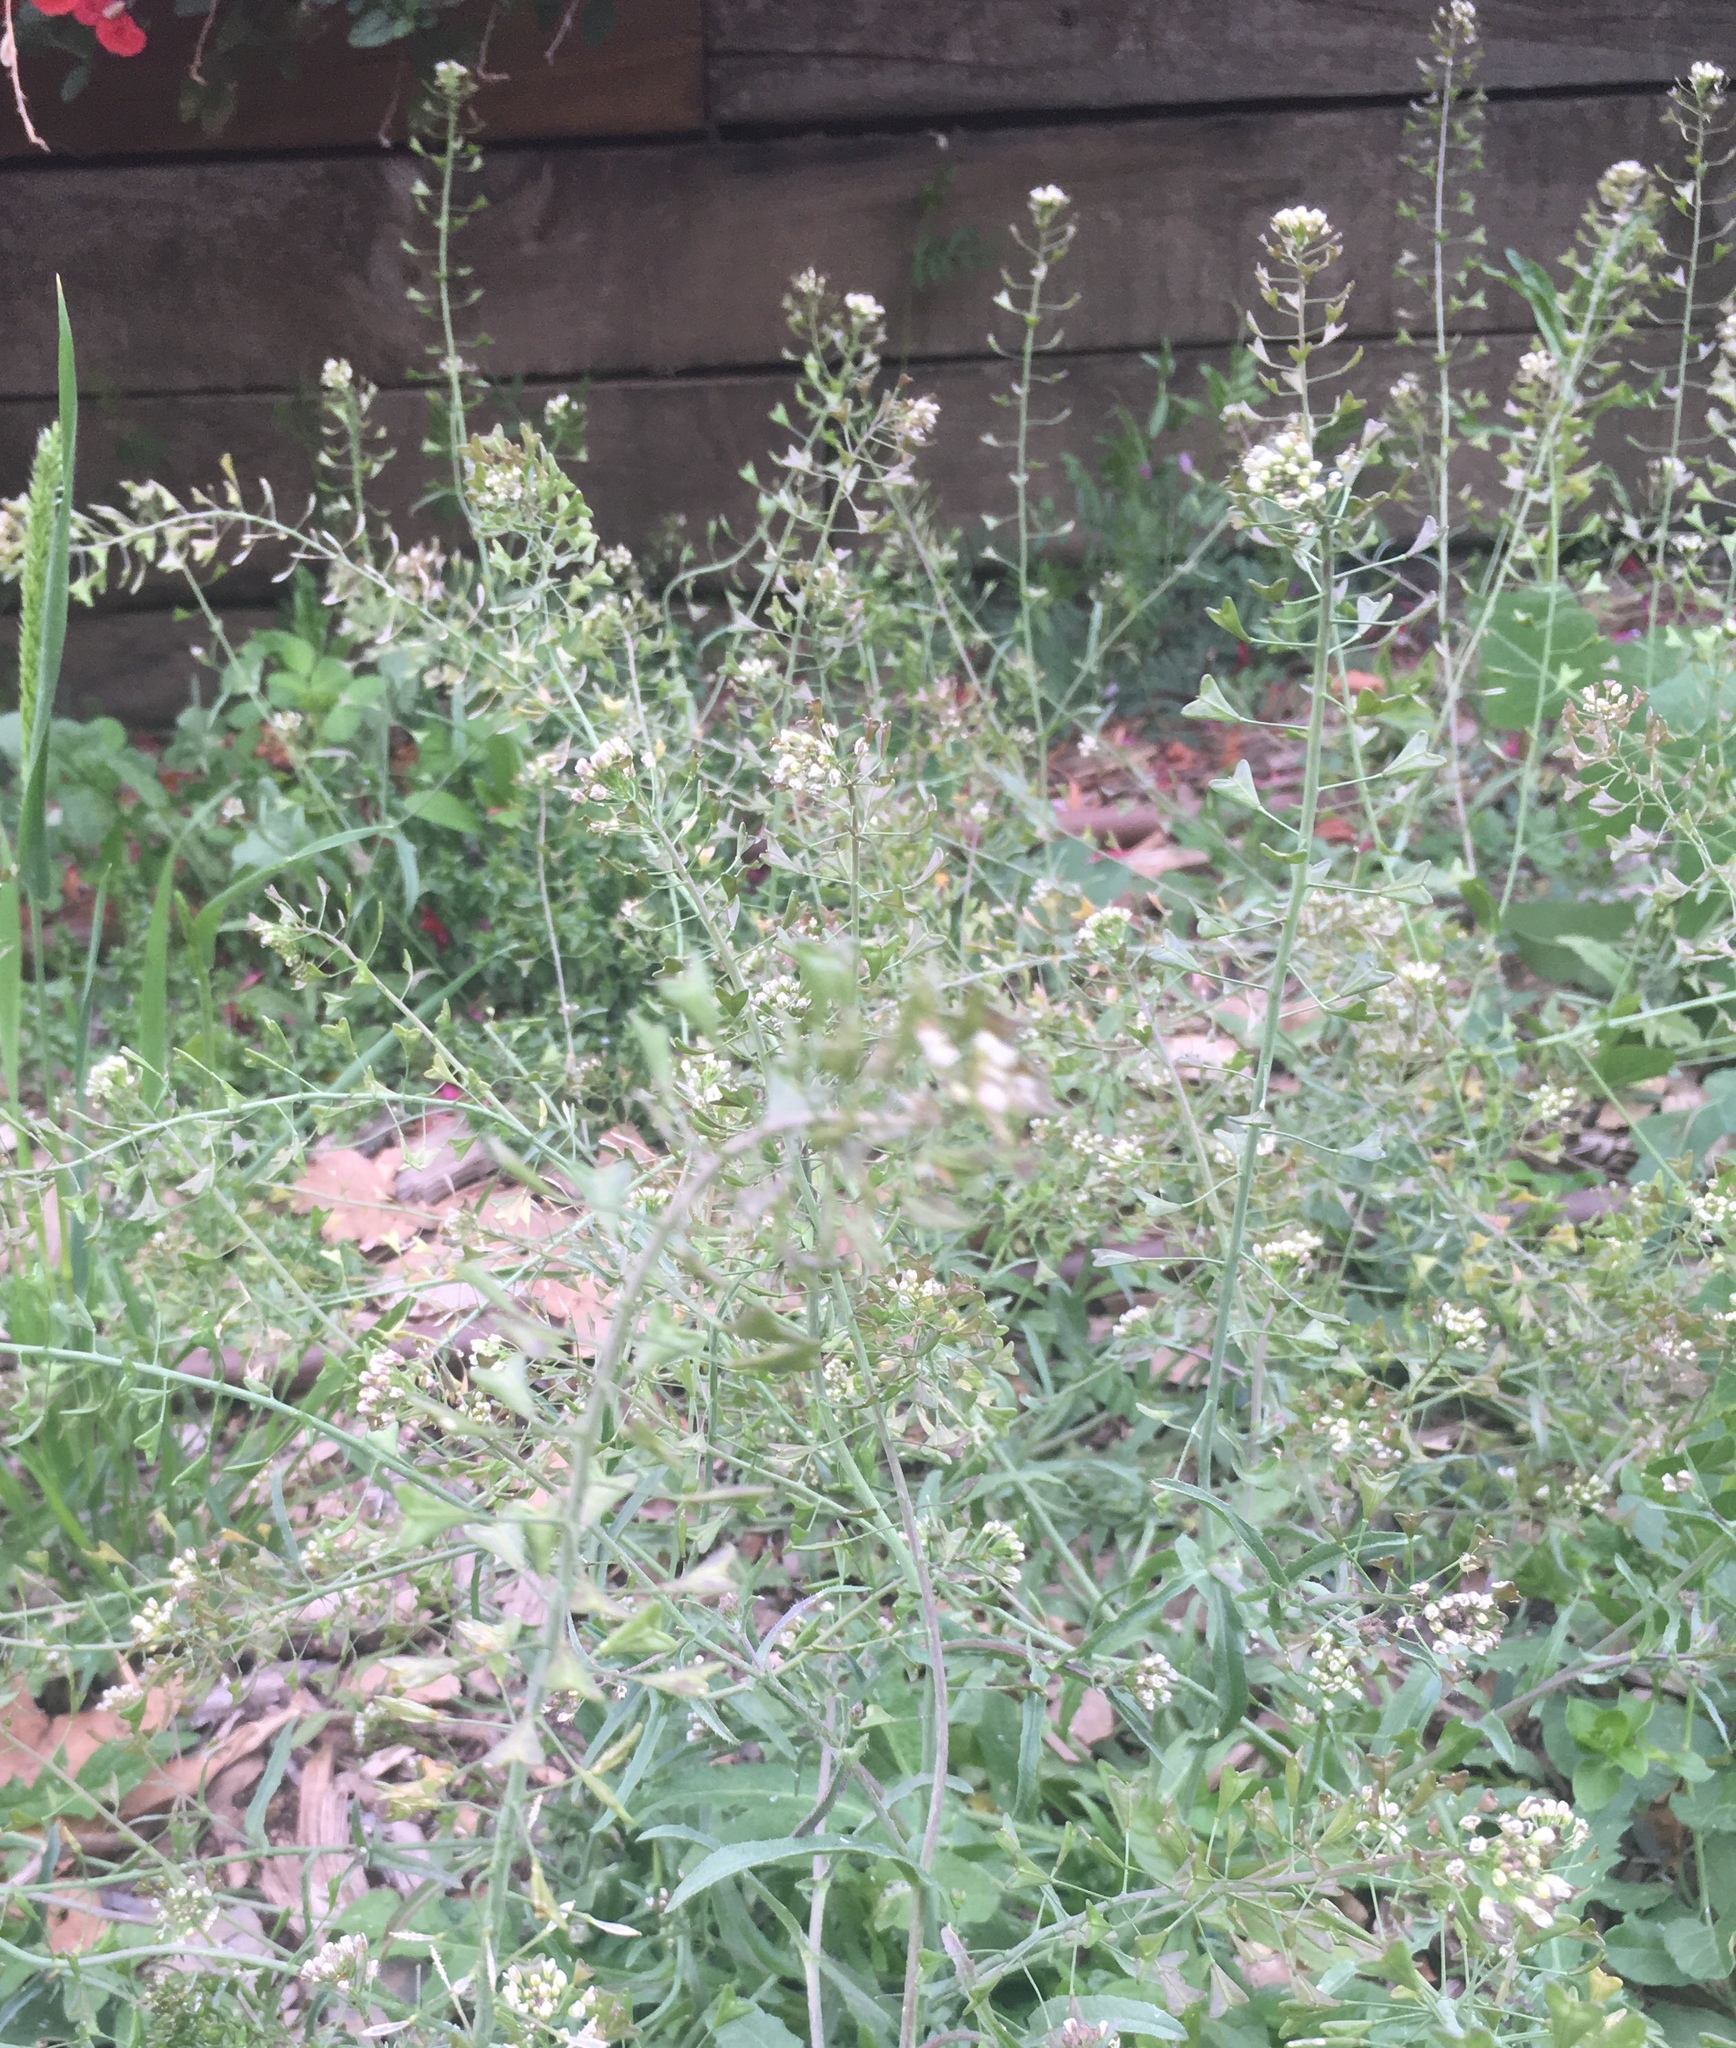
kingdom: Plantae
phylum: Tracheophyta
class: Magnoliopsida
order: Brassicales
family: Brassicaceae
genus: Capsella
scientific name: Capsella bursa-pastoris
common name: Shepherd's purse
